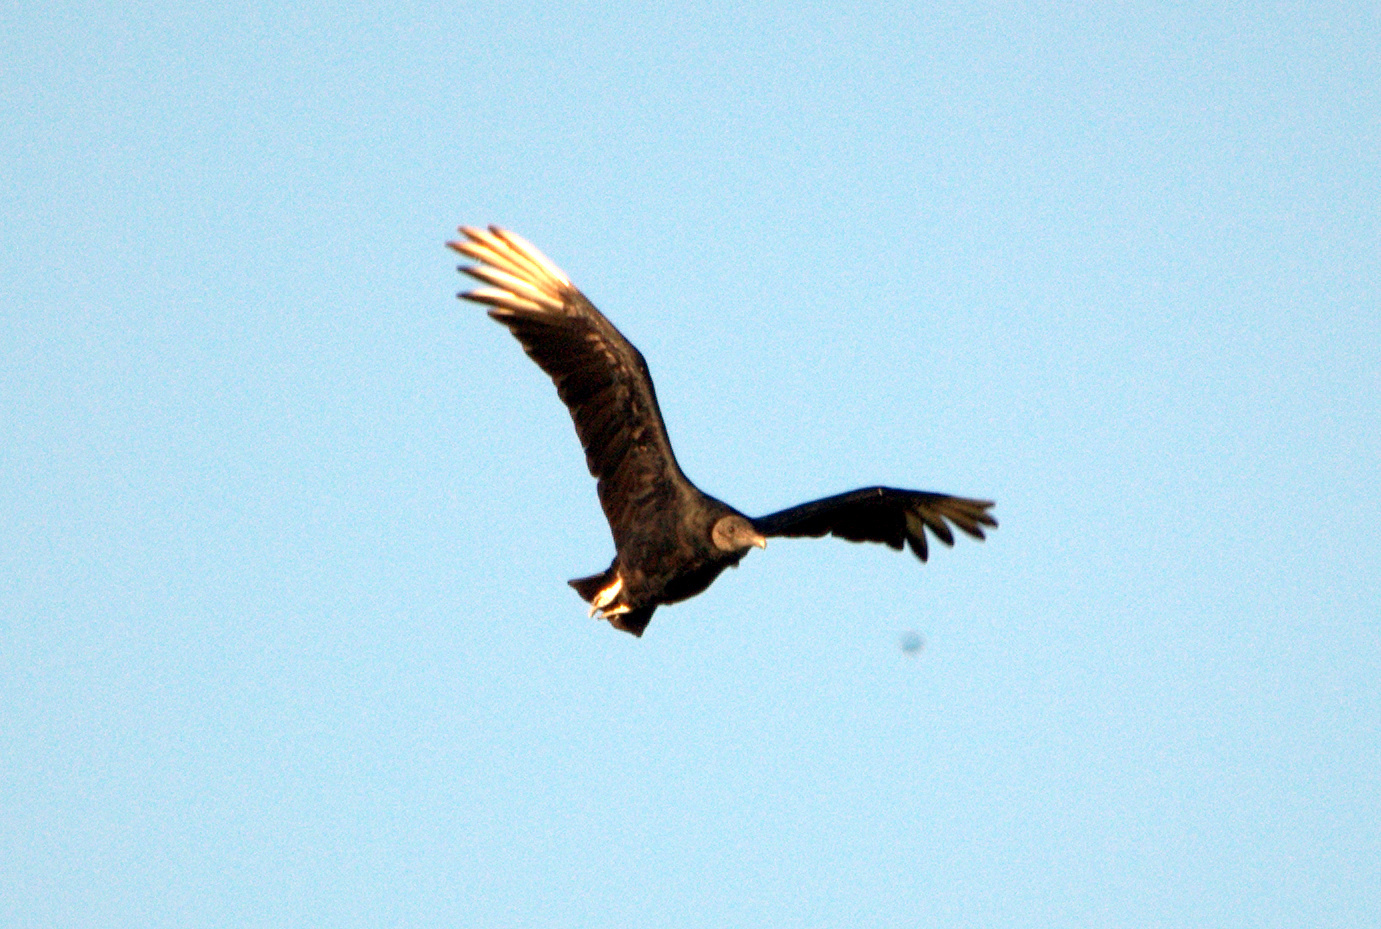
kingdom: Animalia
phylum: Chordata
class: Aves
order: Accipitriformes
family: Cathartidae
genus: Coragyps
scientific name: Coragyps atratus
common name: Black vulture
